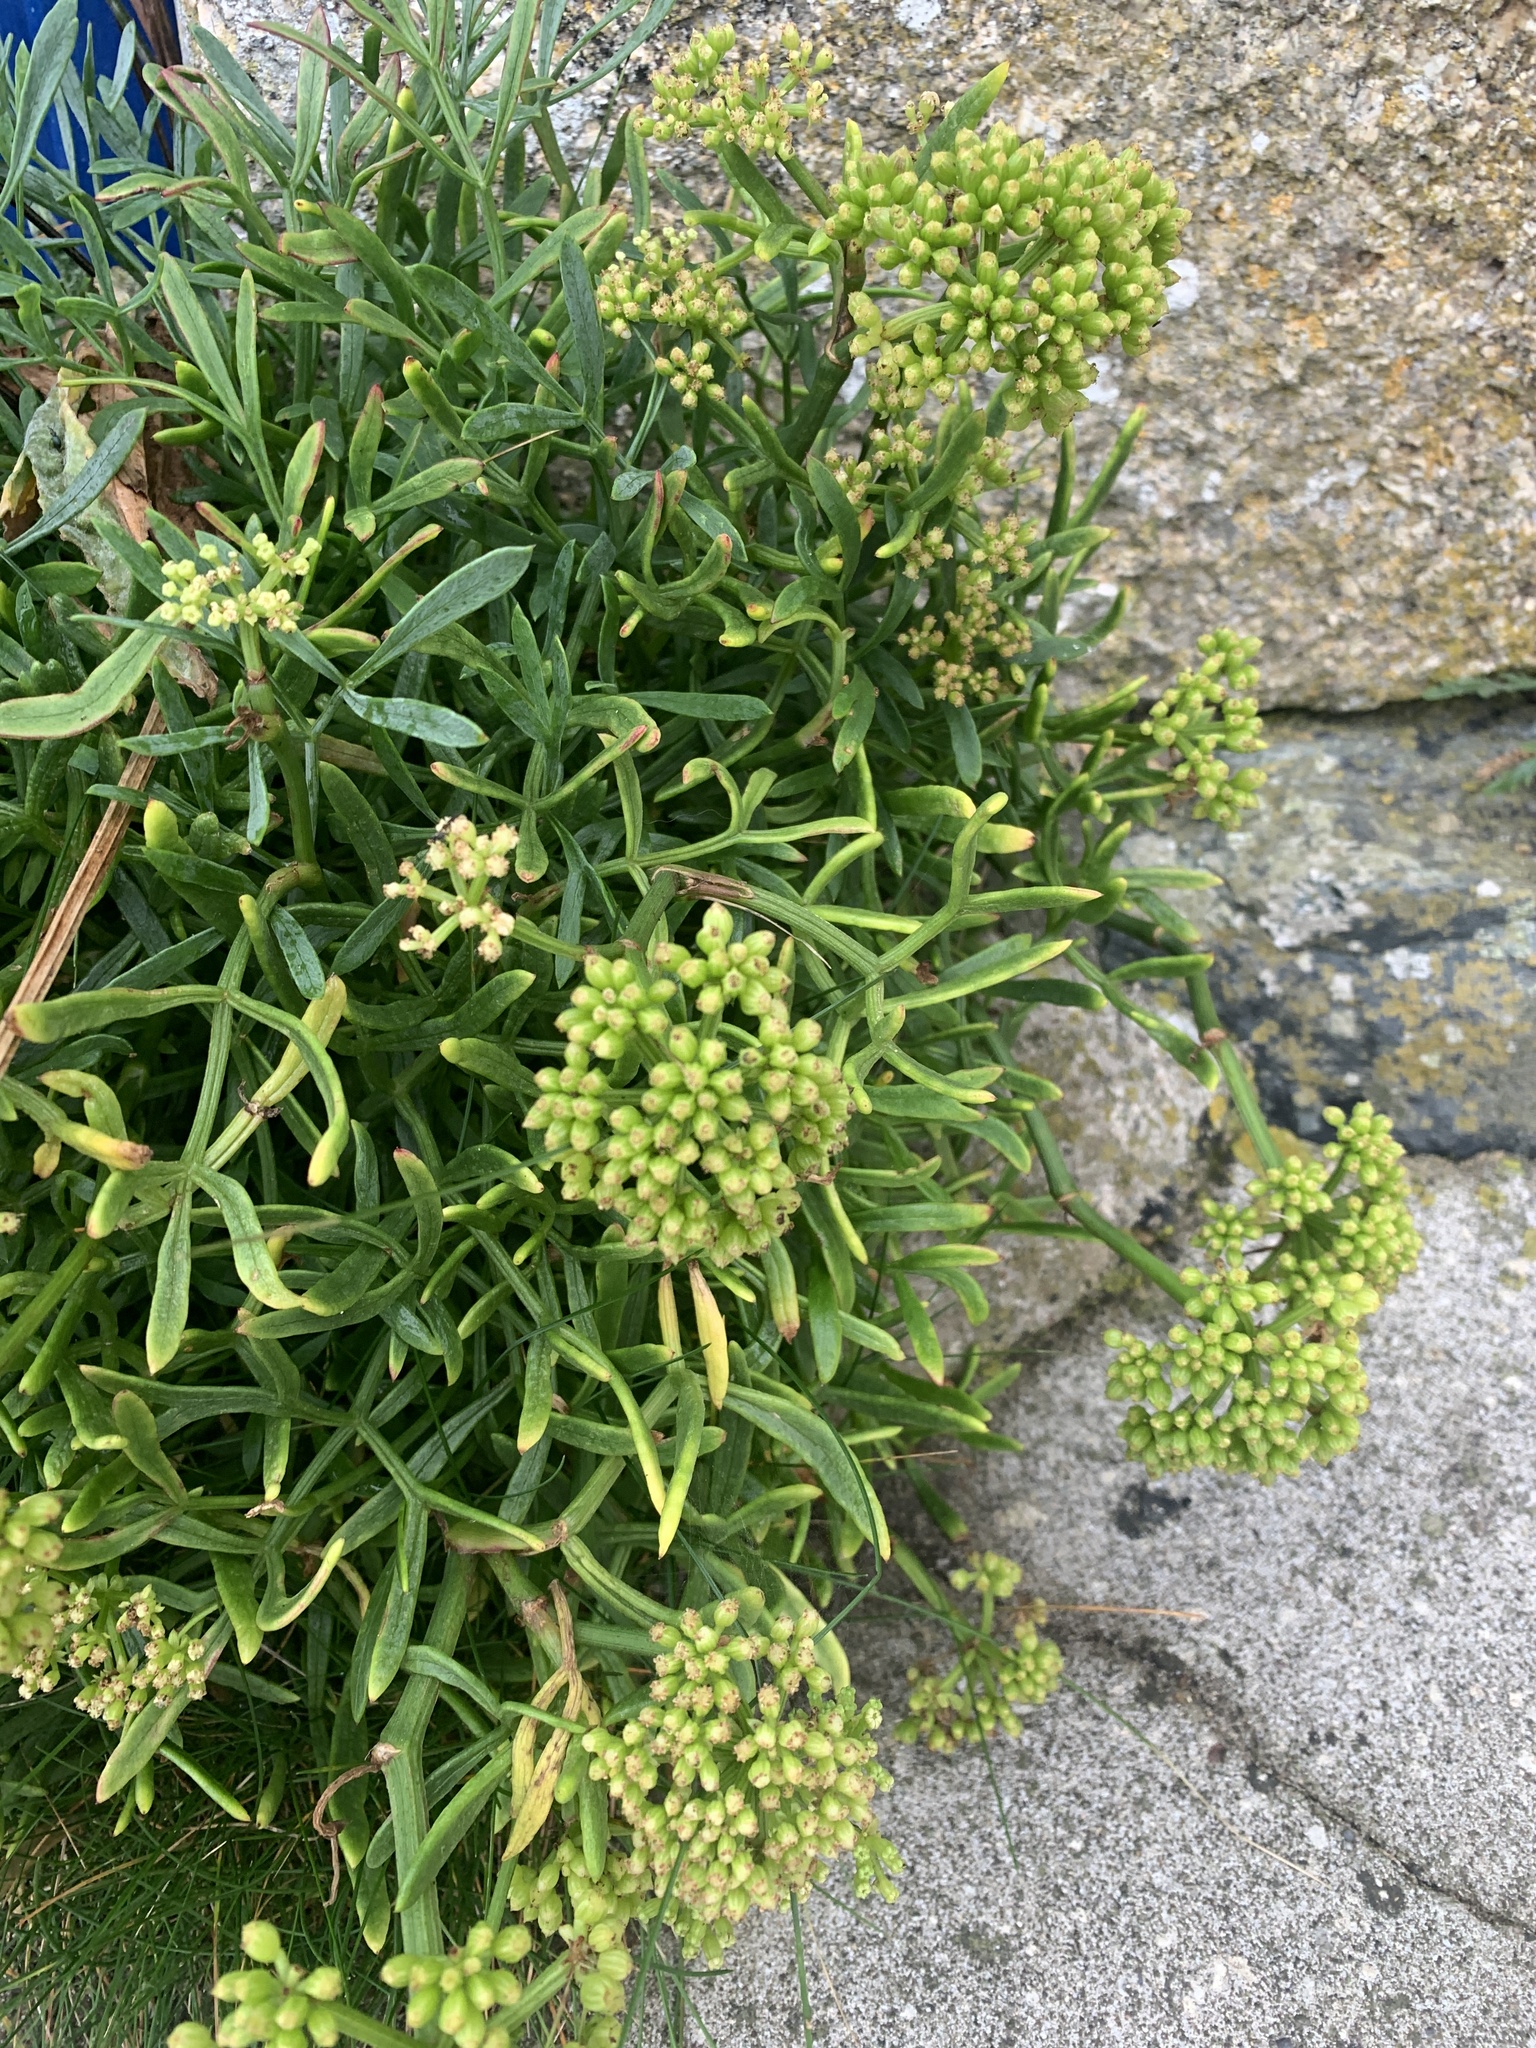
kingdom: Plantae
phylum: Tracheophyta
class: Magnoliopsida
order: Apiales
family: Apiaceae
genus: Crithmum
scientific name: Crithmum maritimum
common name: Rock samphire
